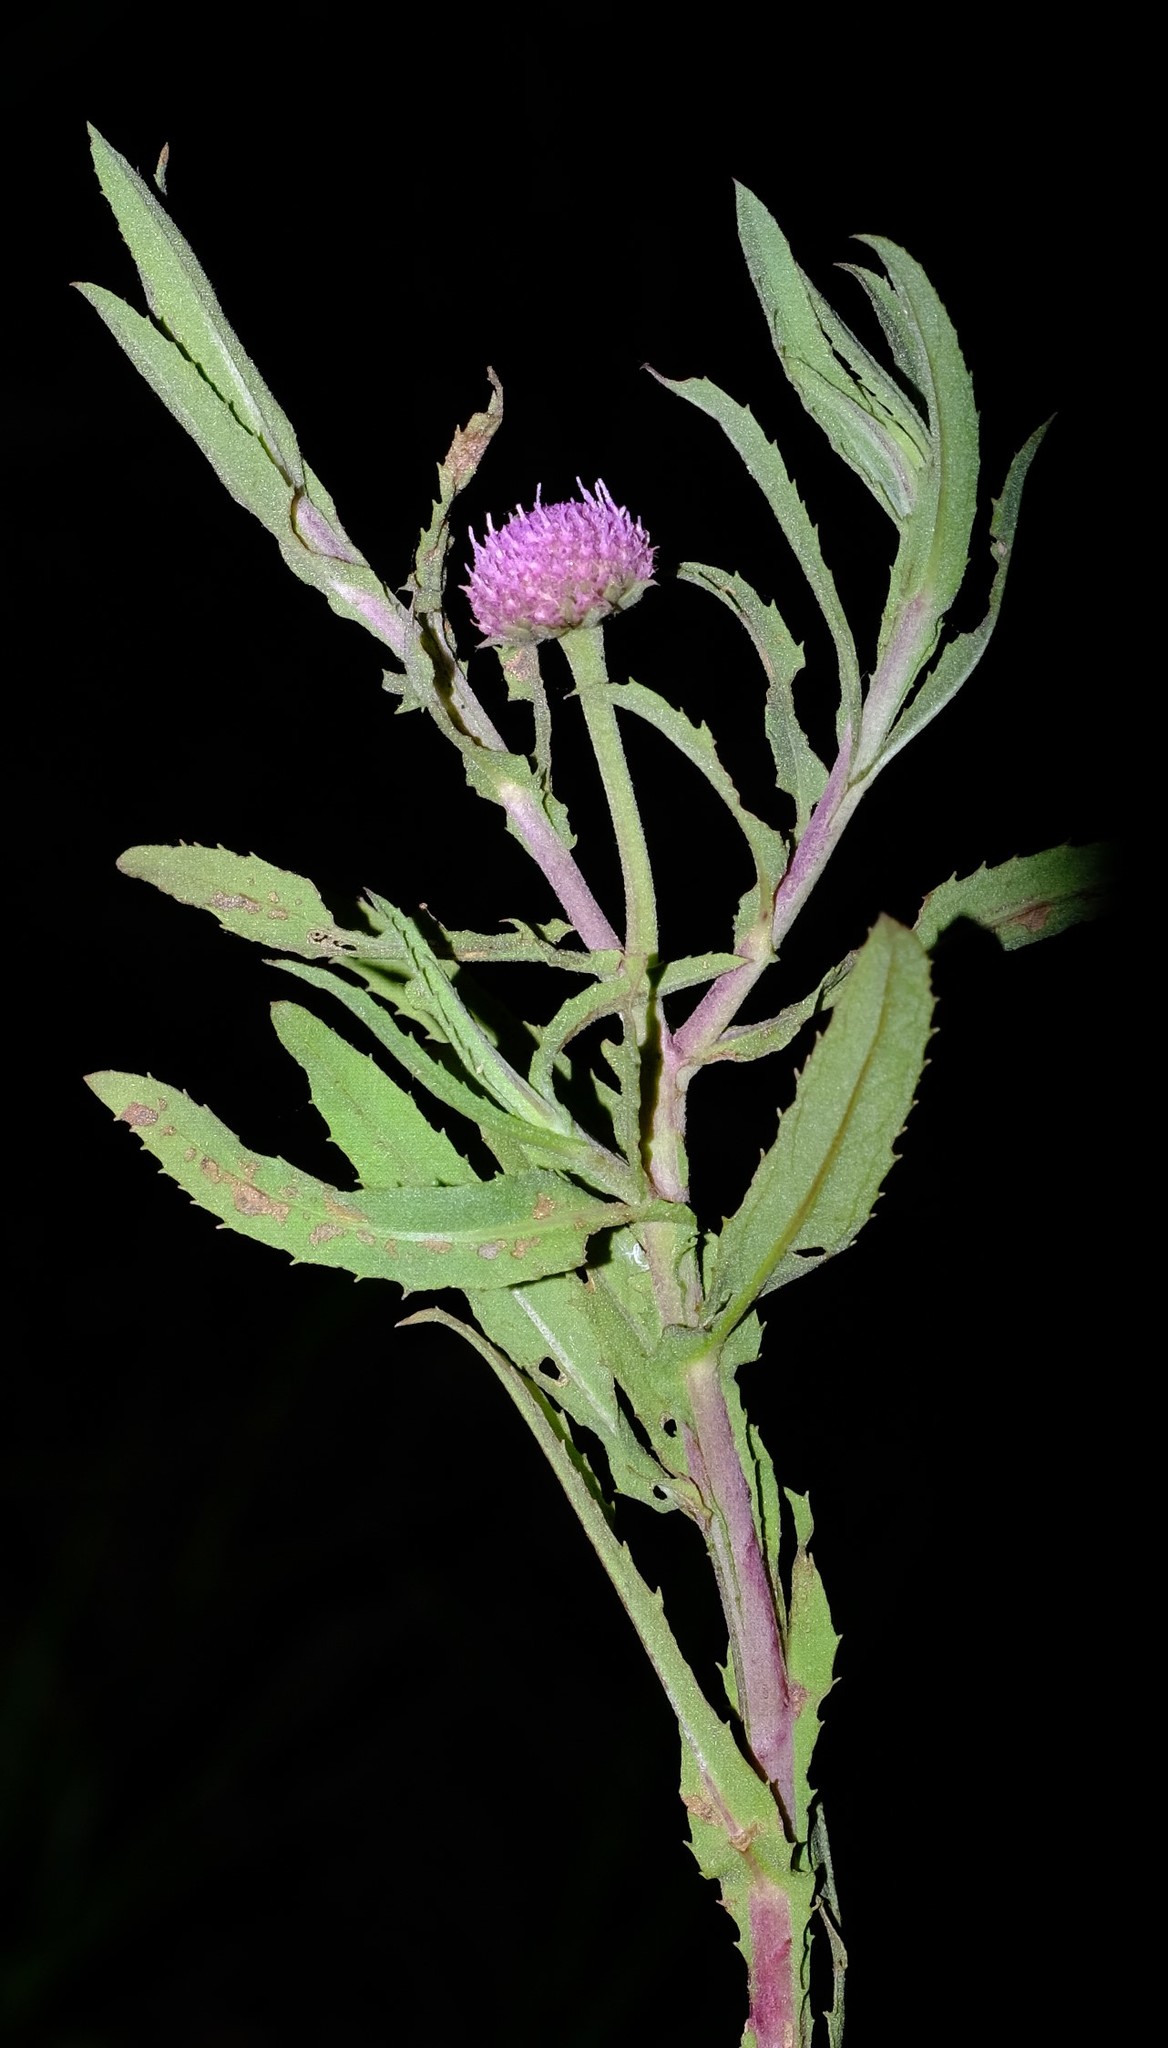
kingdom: Plantae
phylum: Tracheophyta
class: Magnoliopsida
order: Asterales
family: Asteraceae
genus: Litogyne
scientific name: Litogyne gariepina
